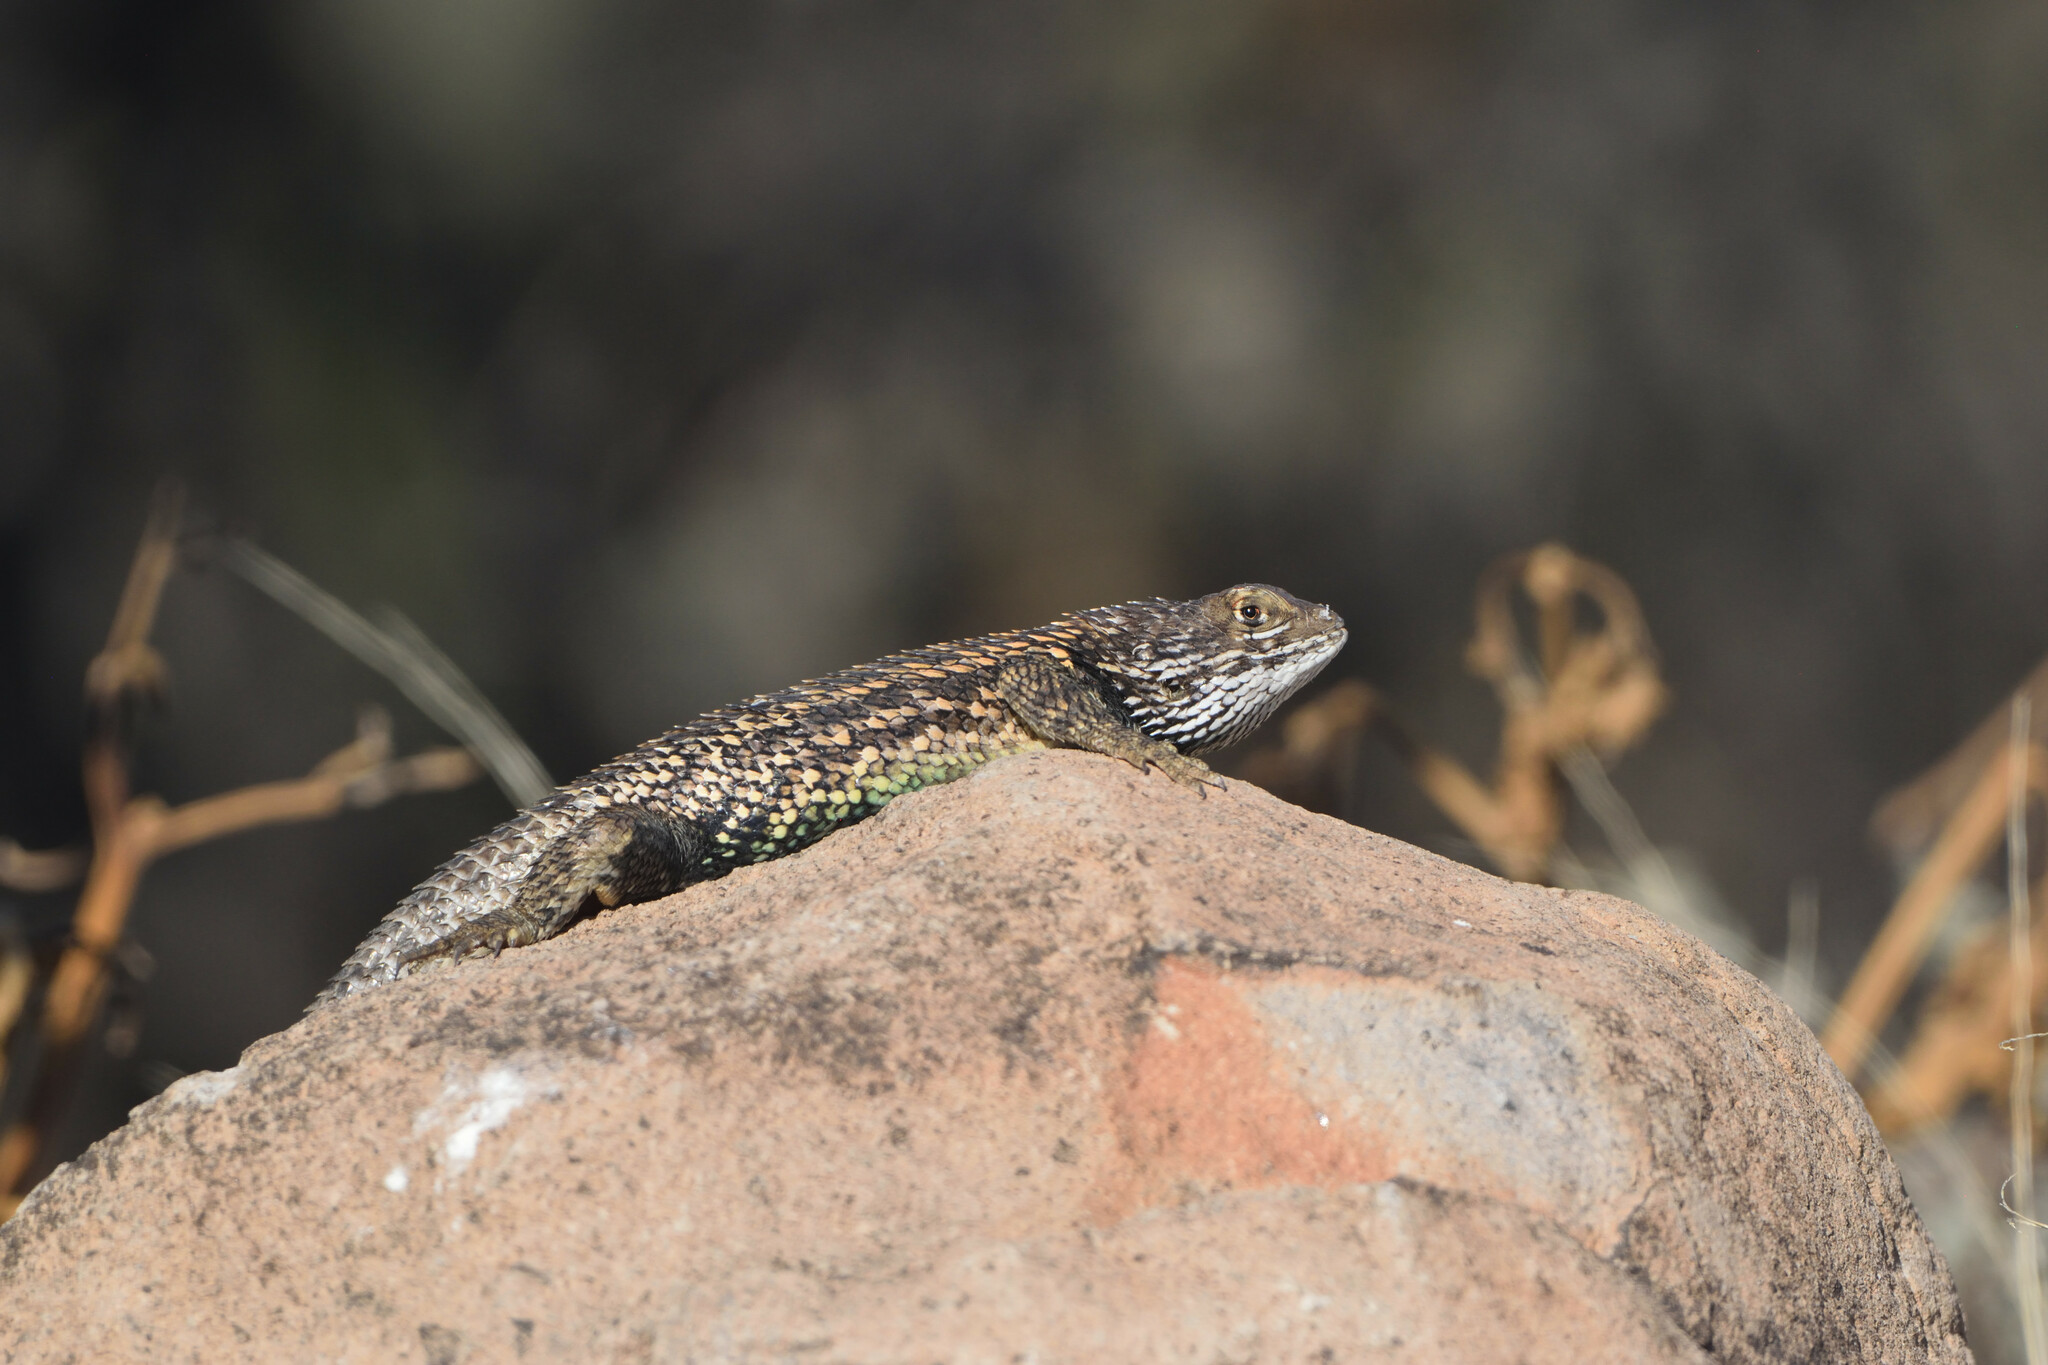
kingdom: Animalia
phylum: Chordata
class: Squamata
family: Phrynosomatidae
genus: Sceloporus
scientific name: Sceloporus zosteromus
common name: Baja spiny lizard
